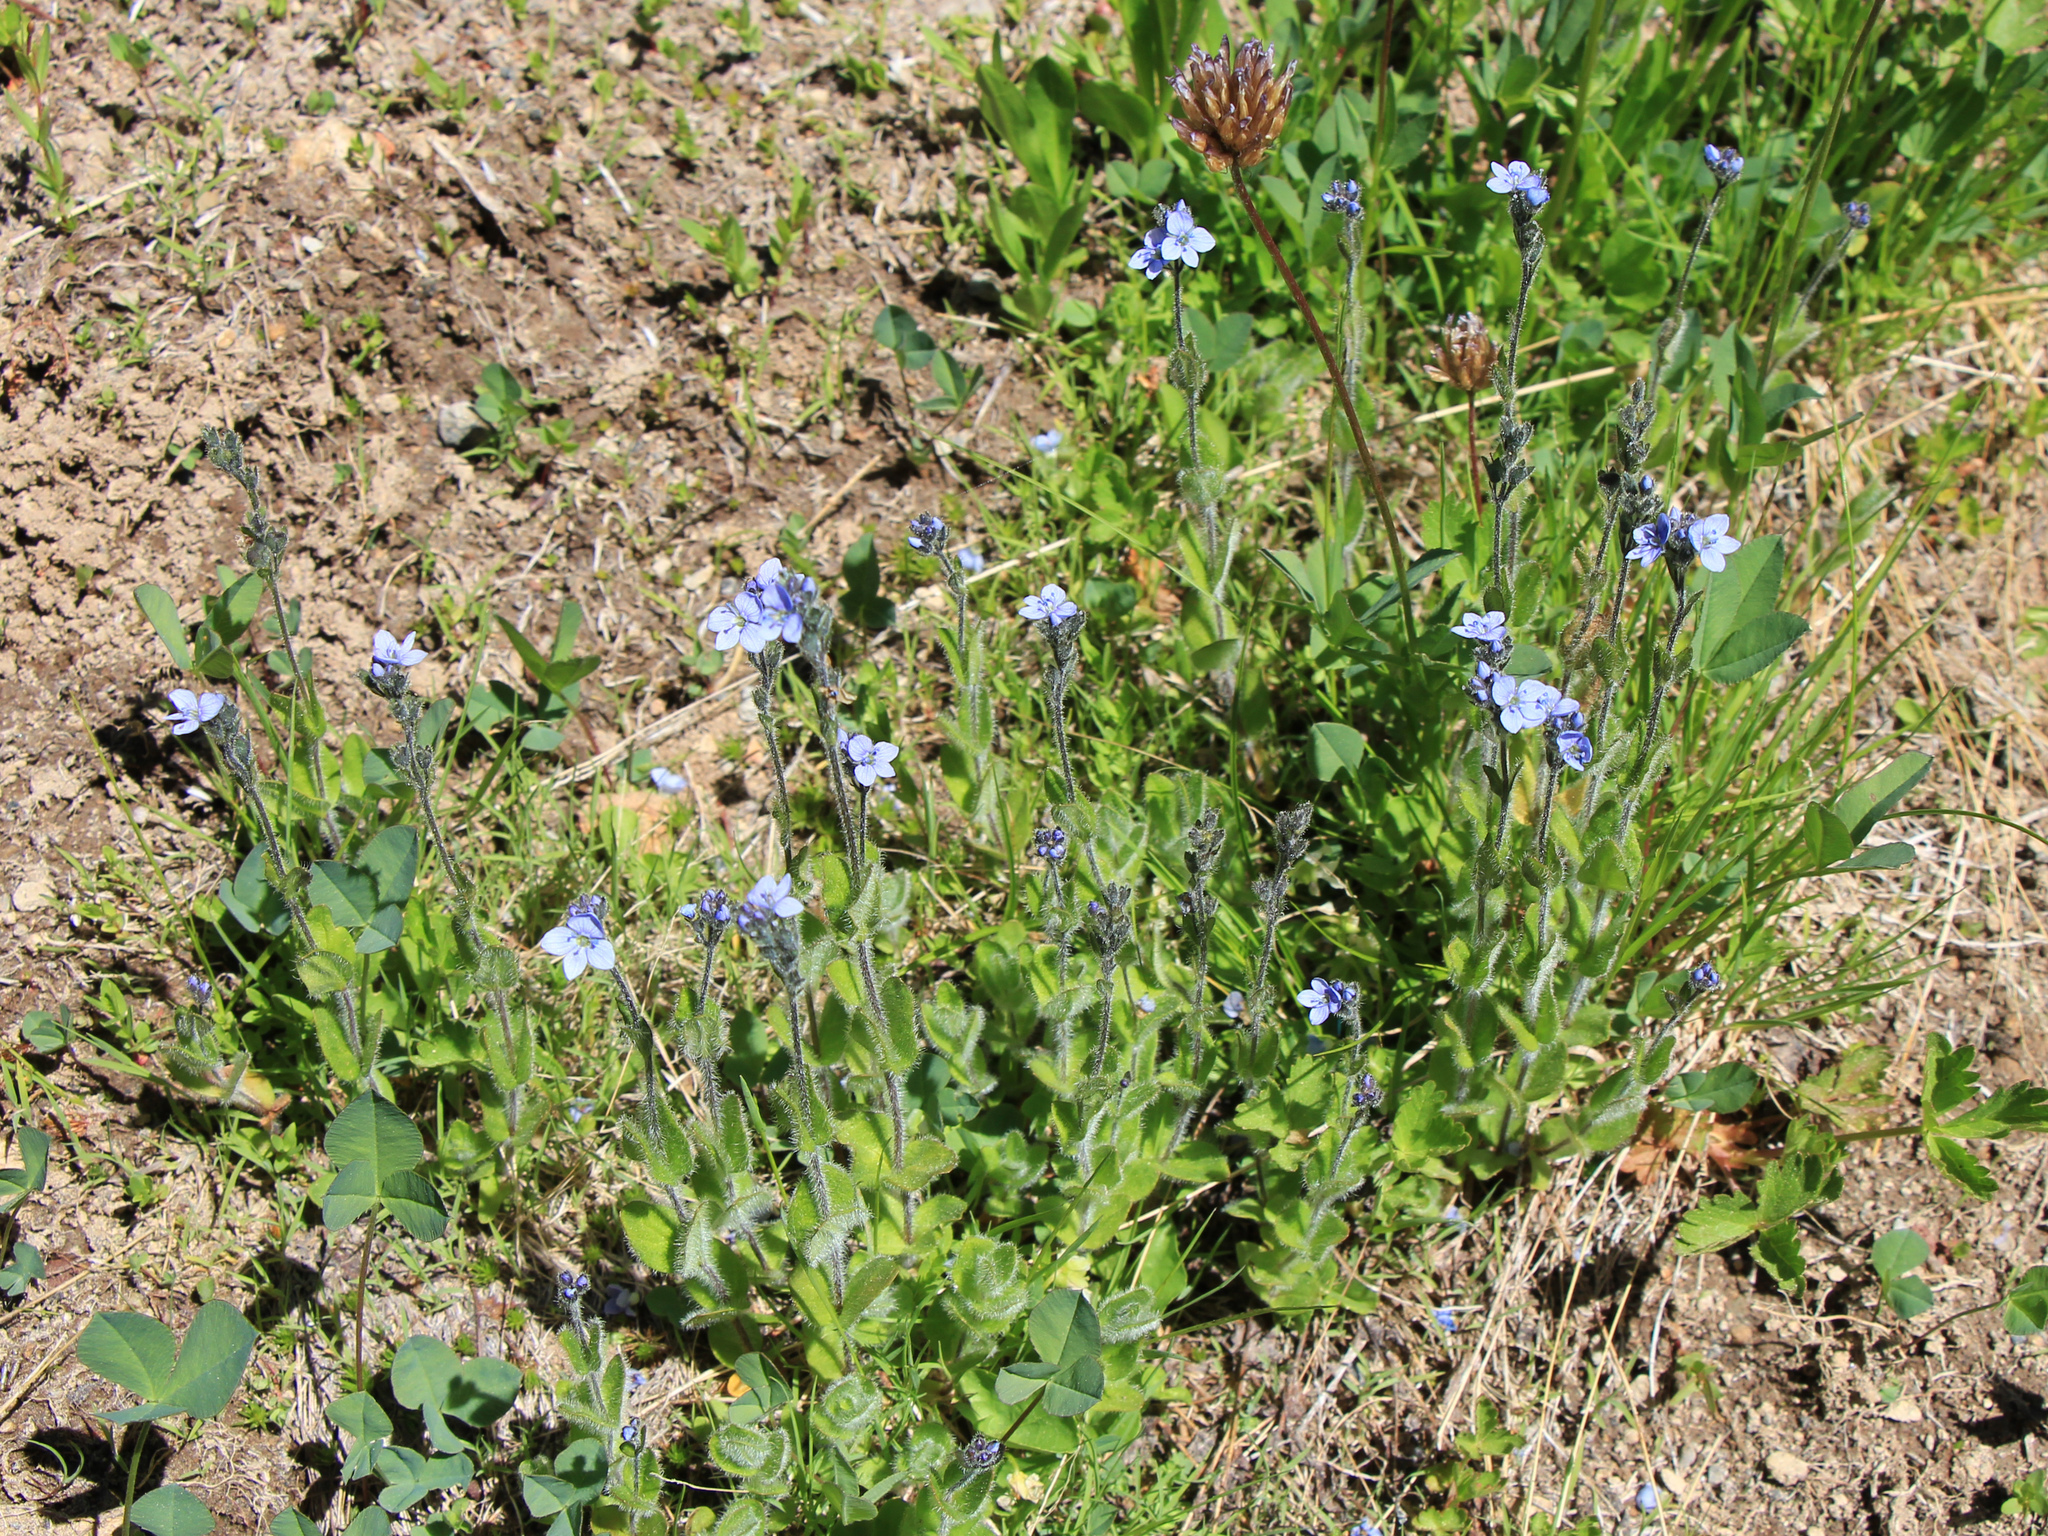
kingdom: Plantae
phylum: Tracheophyta
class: Magnoliopsida
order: Lamiales
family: Plantaginaceae
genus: Veronica
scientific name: Veronica wormskjoldii
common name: American alpine speedwell
